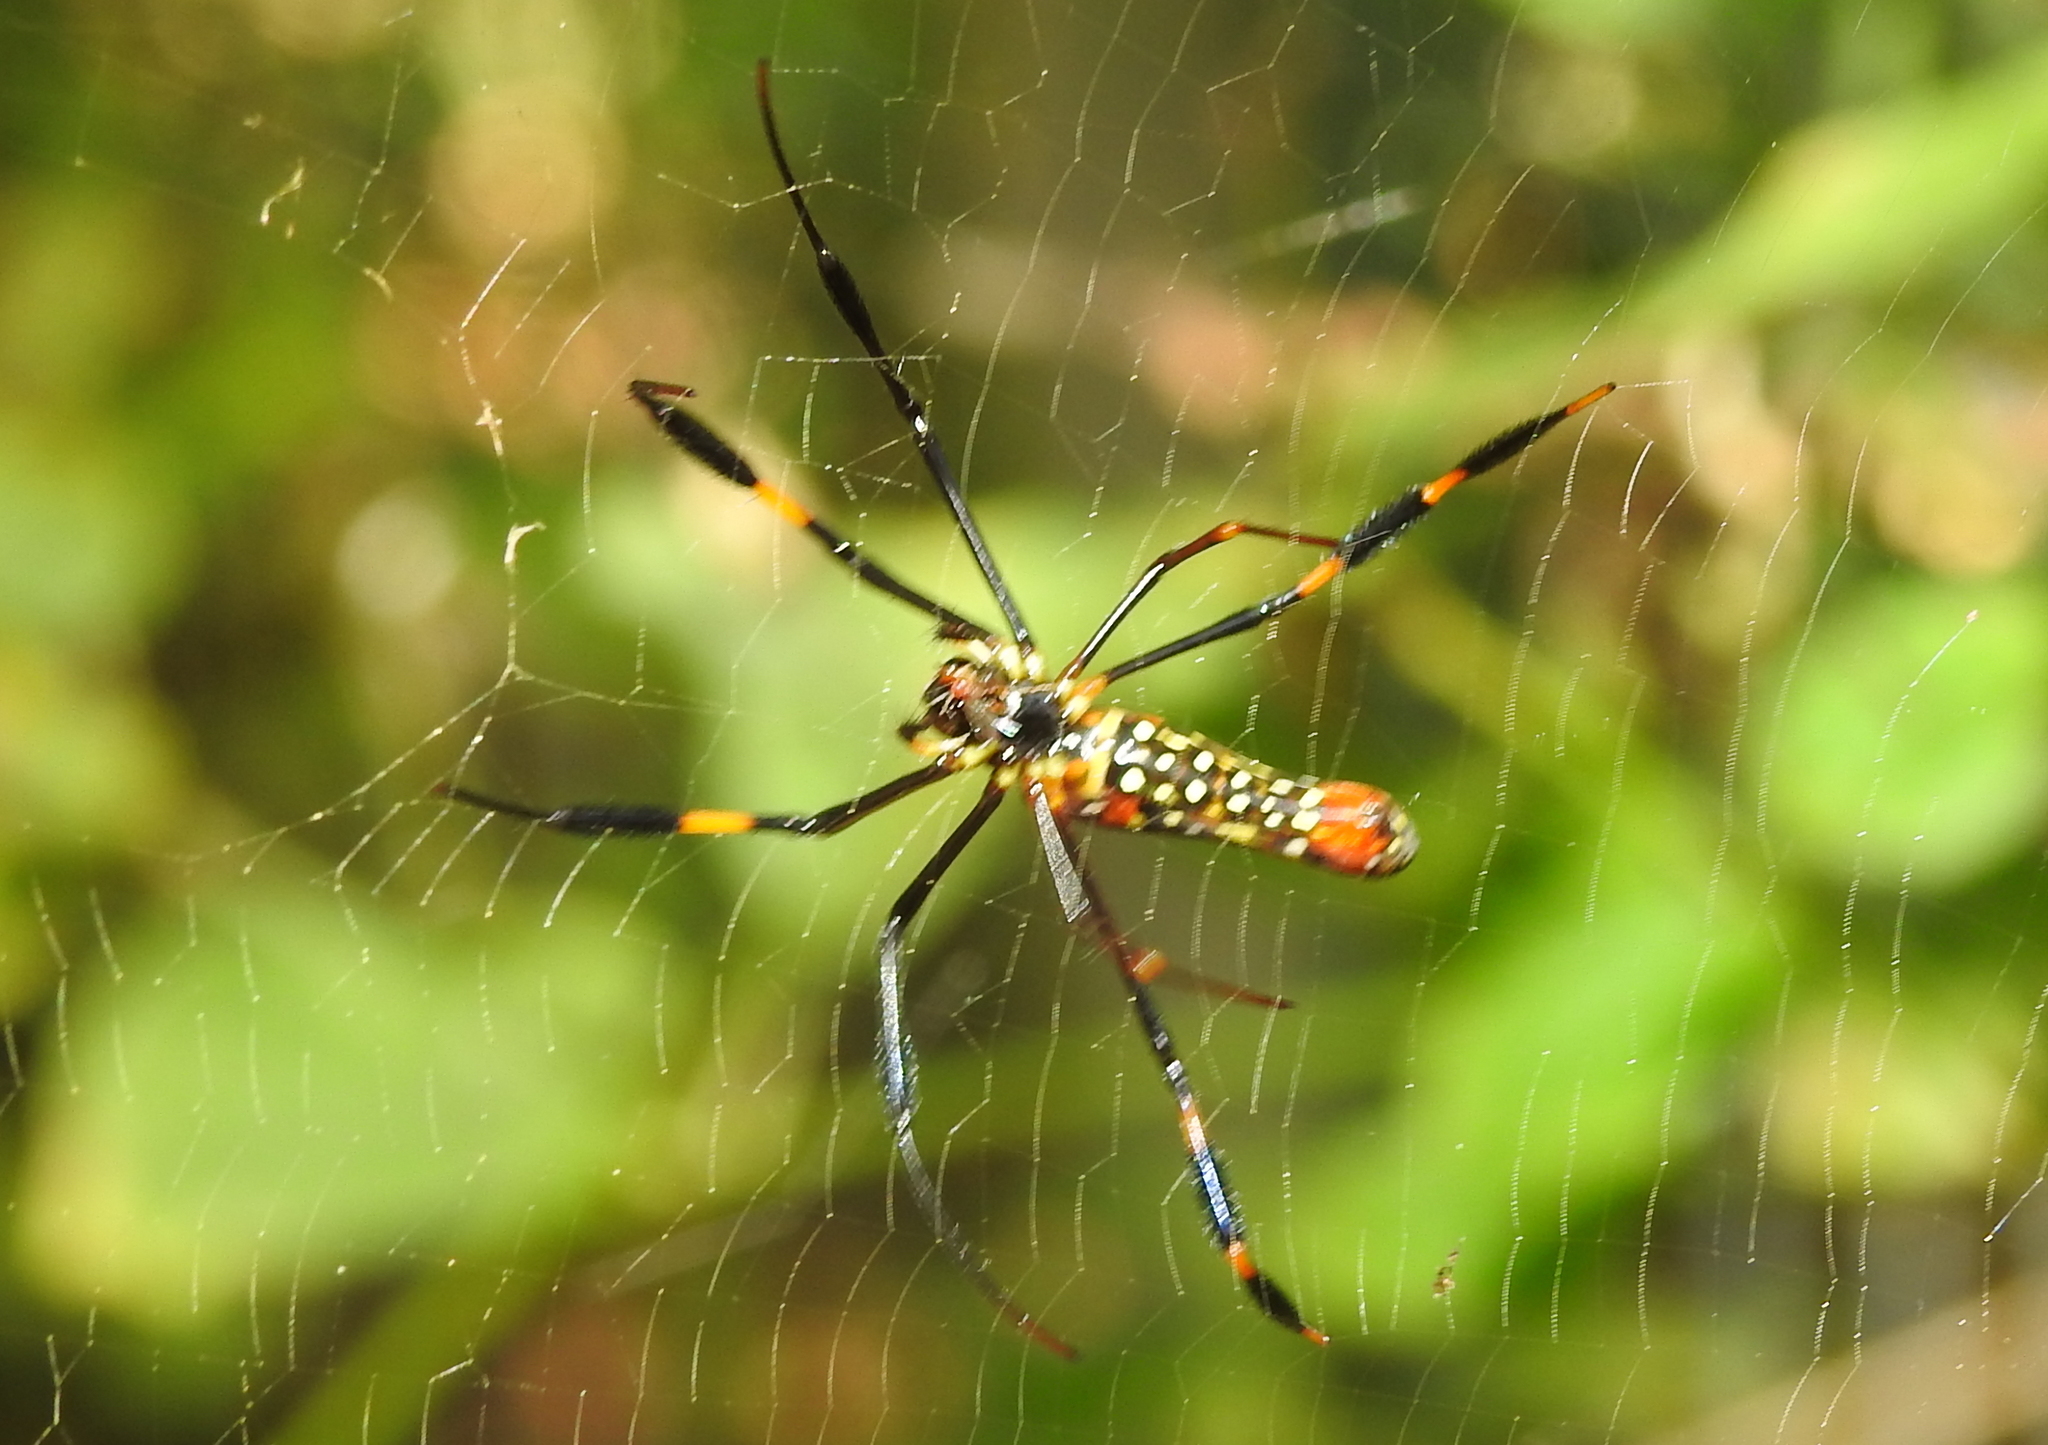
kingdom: Animalia
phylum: Arthropoda
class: Arachnida
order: Araneae
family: Araneidae
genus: Nephila
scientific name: Nephila pilipes
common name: Giant golden orb weaver
